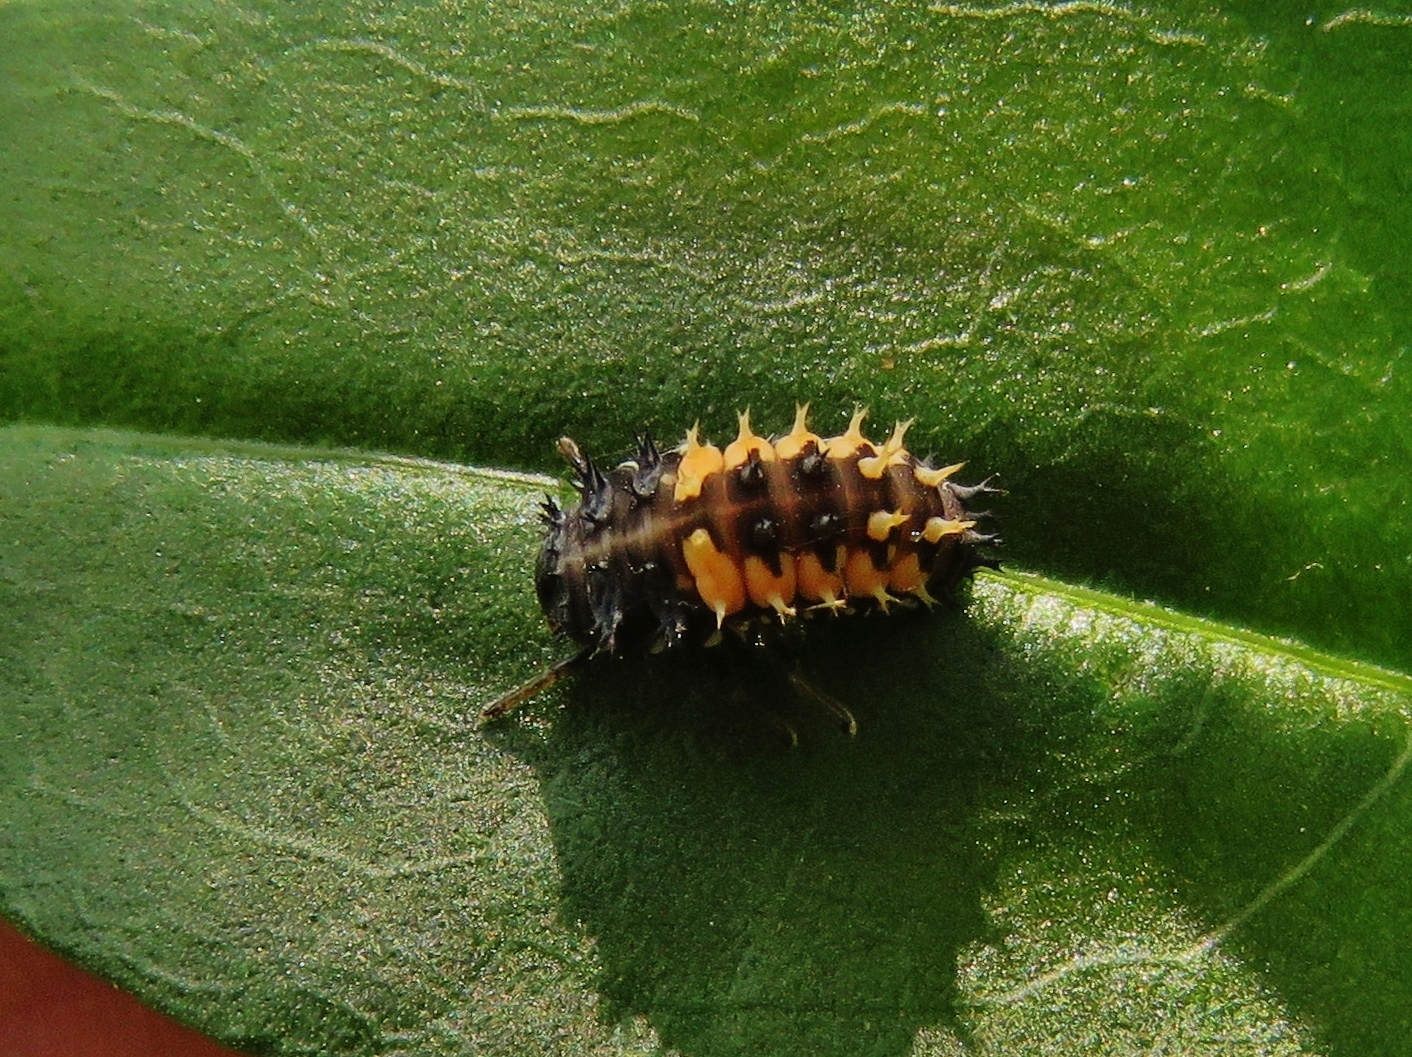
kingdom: Animalia
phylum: Arthropoda
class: Insecta
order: Coleoptera
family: Coccinellidae
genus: Harmonia
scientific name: Harmonia axyridis
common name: Harlequin ladybird
